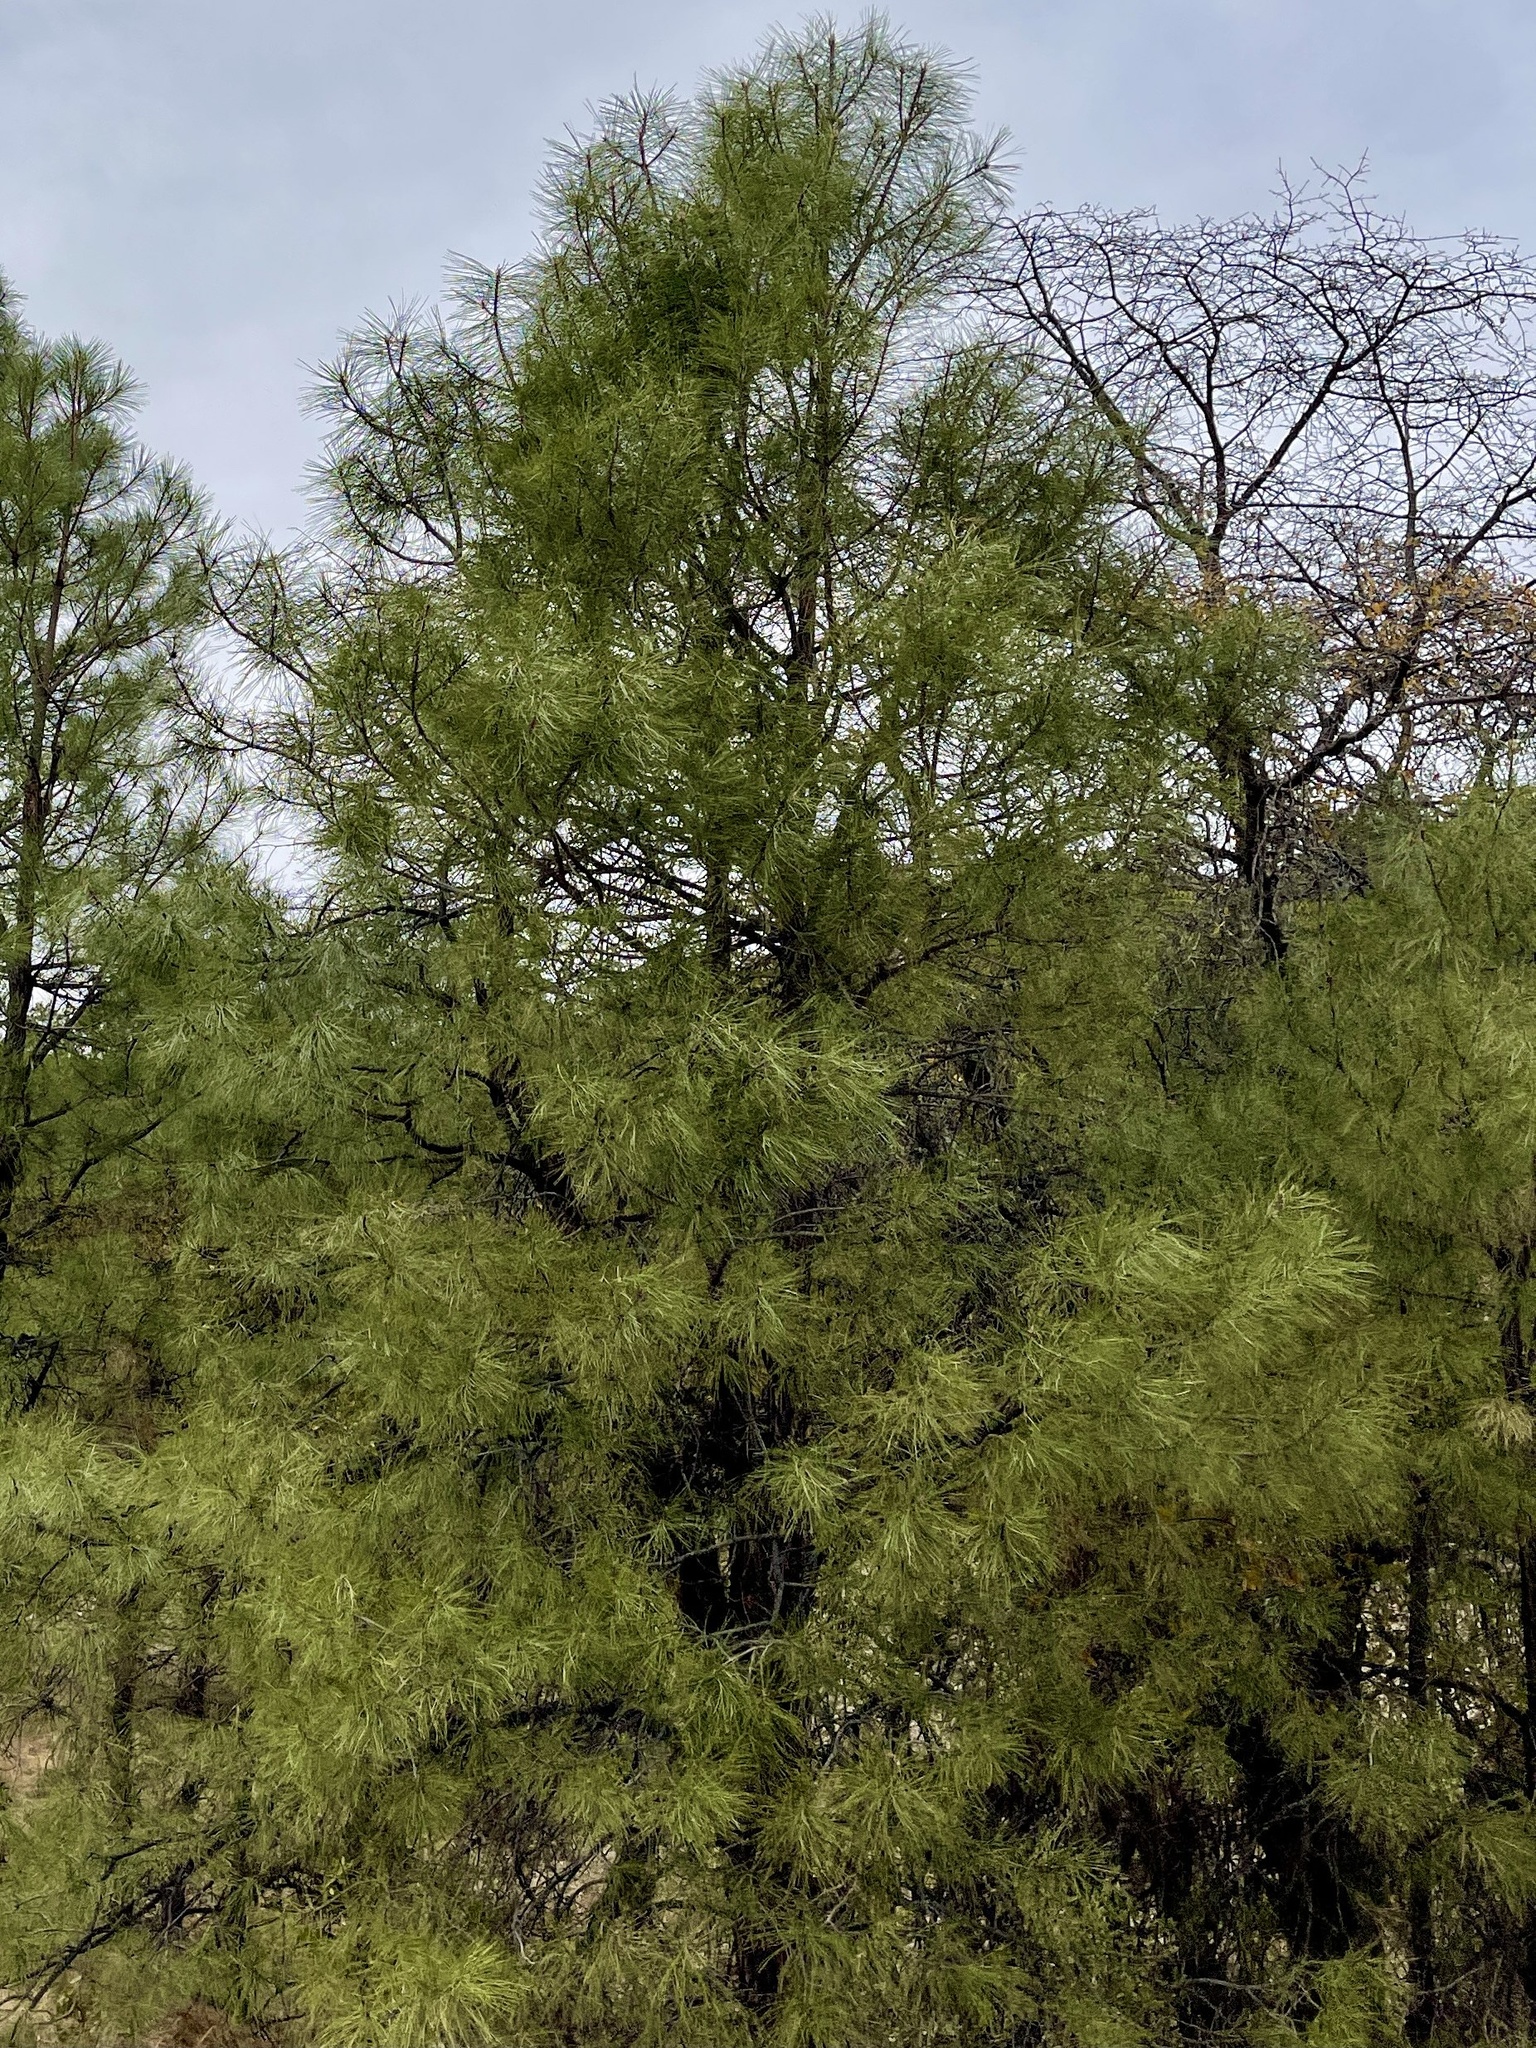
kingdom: Plantae
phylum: Tracheophyta
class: Pinopsida
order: Pinales
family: Pinaceae
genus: Pinus
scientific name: Pinus ponderosa
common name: Western yellow-pine
